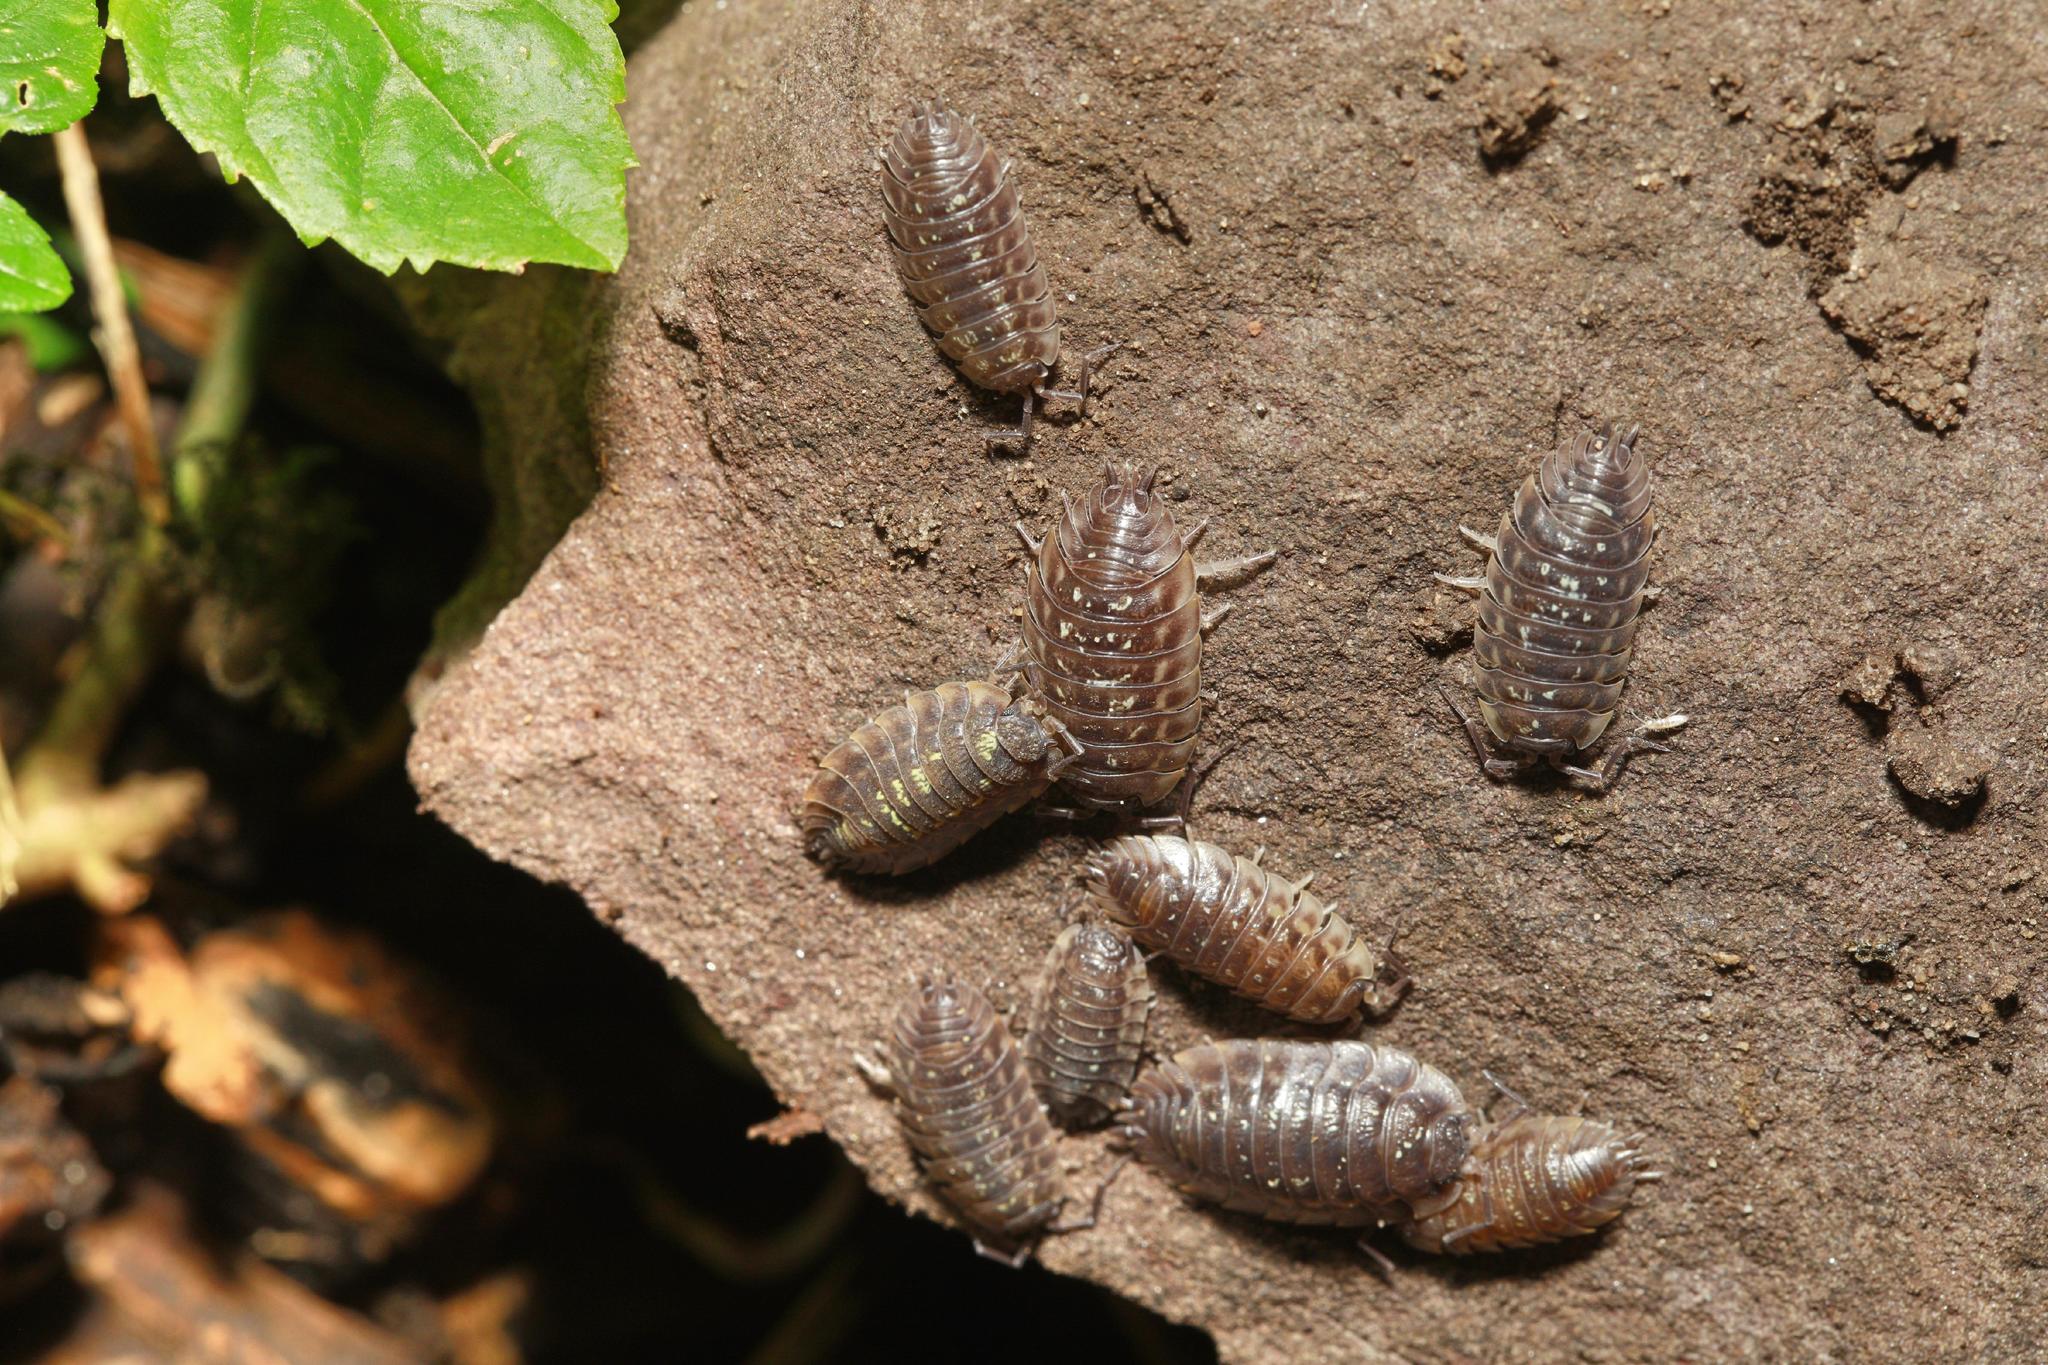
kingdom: Animalia
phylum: Arthropoda
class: Malacostraca
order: Isopoda
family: Oniscidae
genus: Oniscus
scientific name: Oniscus asellus
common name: Common shiny woodlouse
